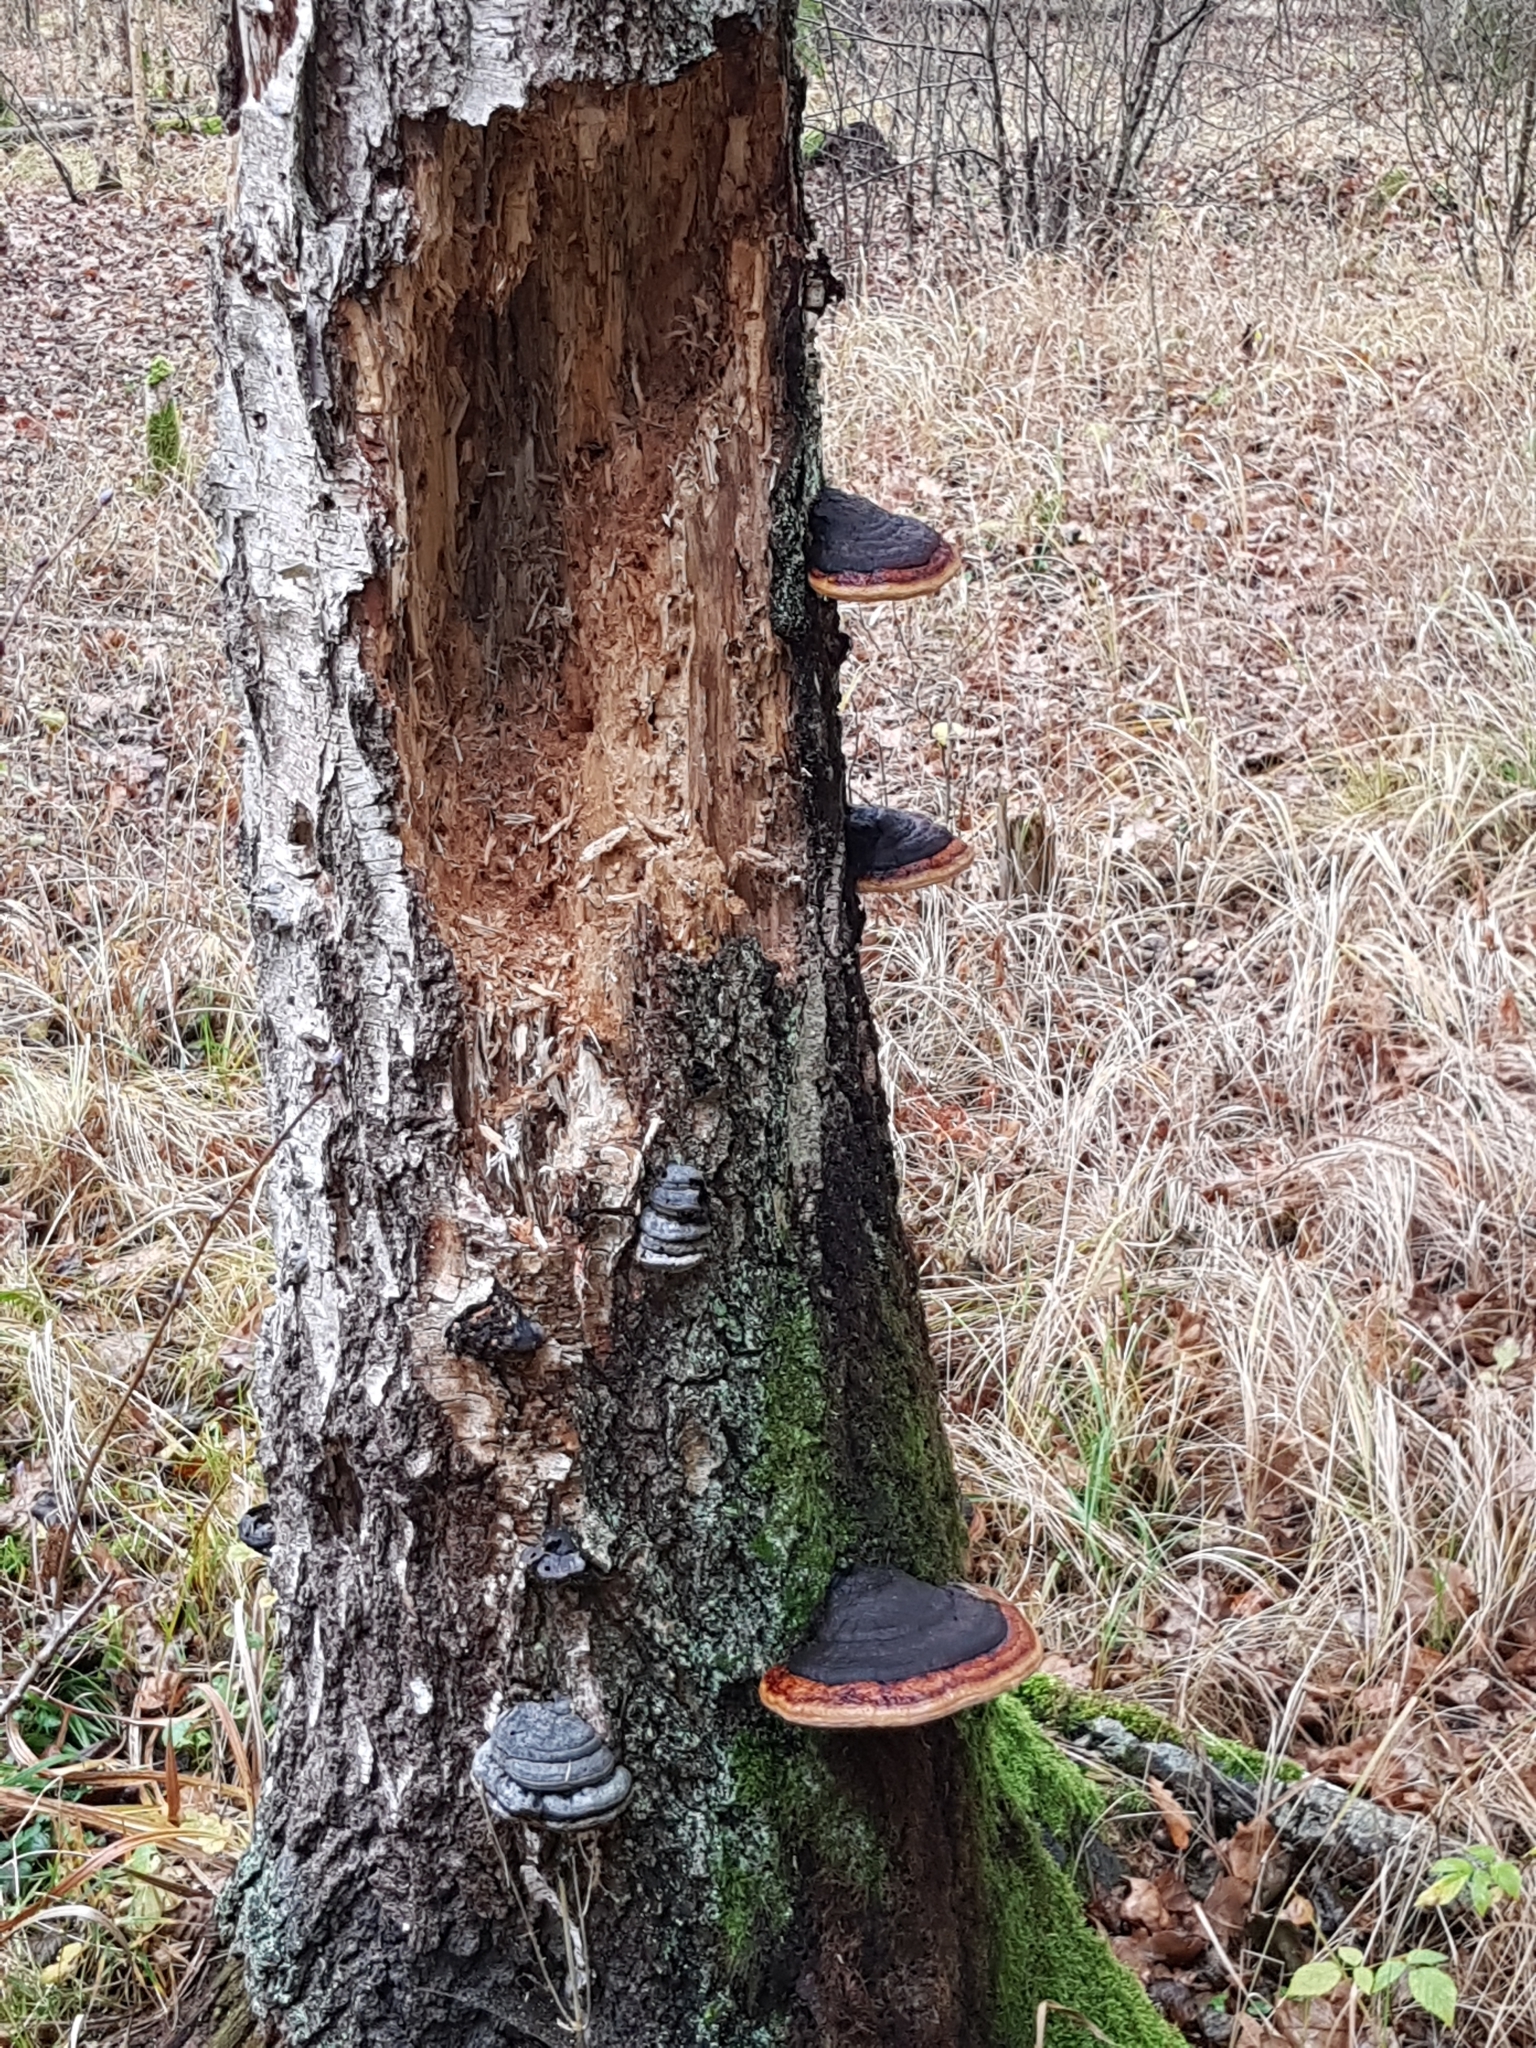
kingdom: Fungi
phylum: Basidiomycota
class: Agaricomycetes
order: Polyporales
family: Fomitopsidaceae
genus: Fomitopsis
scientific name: Fomitopsis pinicola
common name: Red-belted bracket
